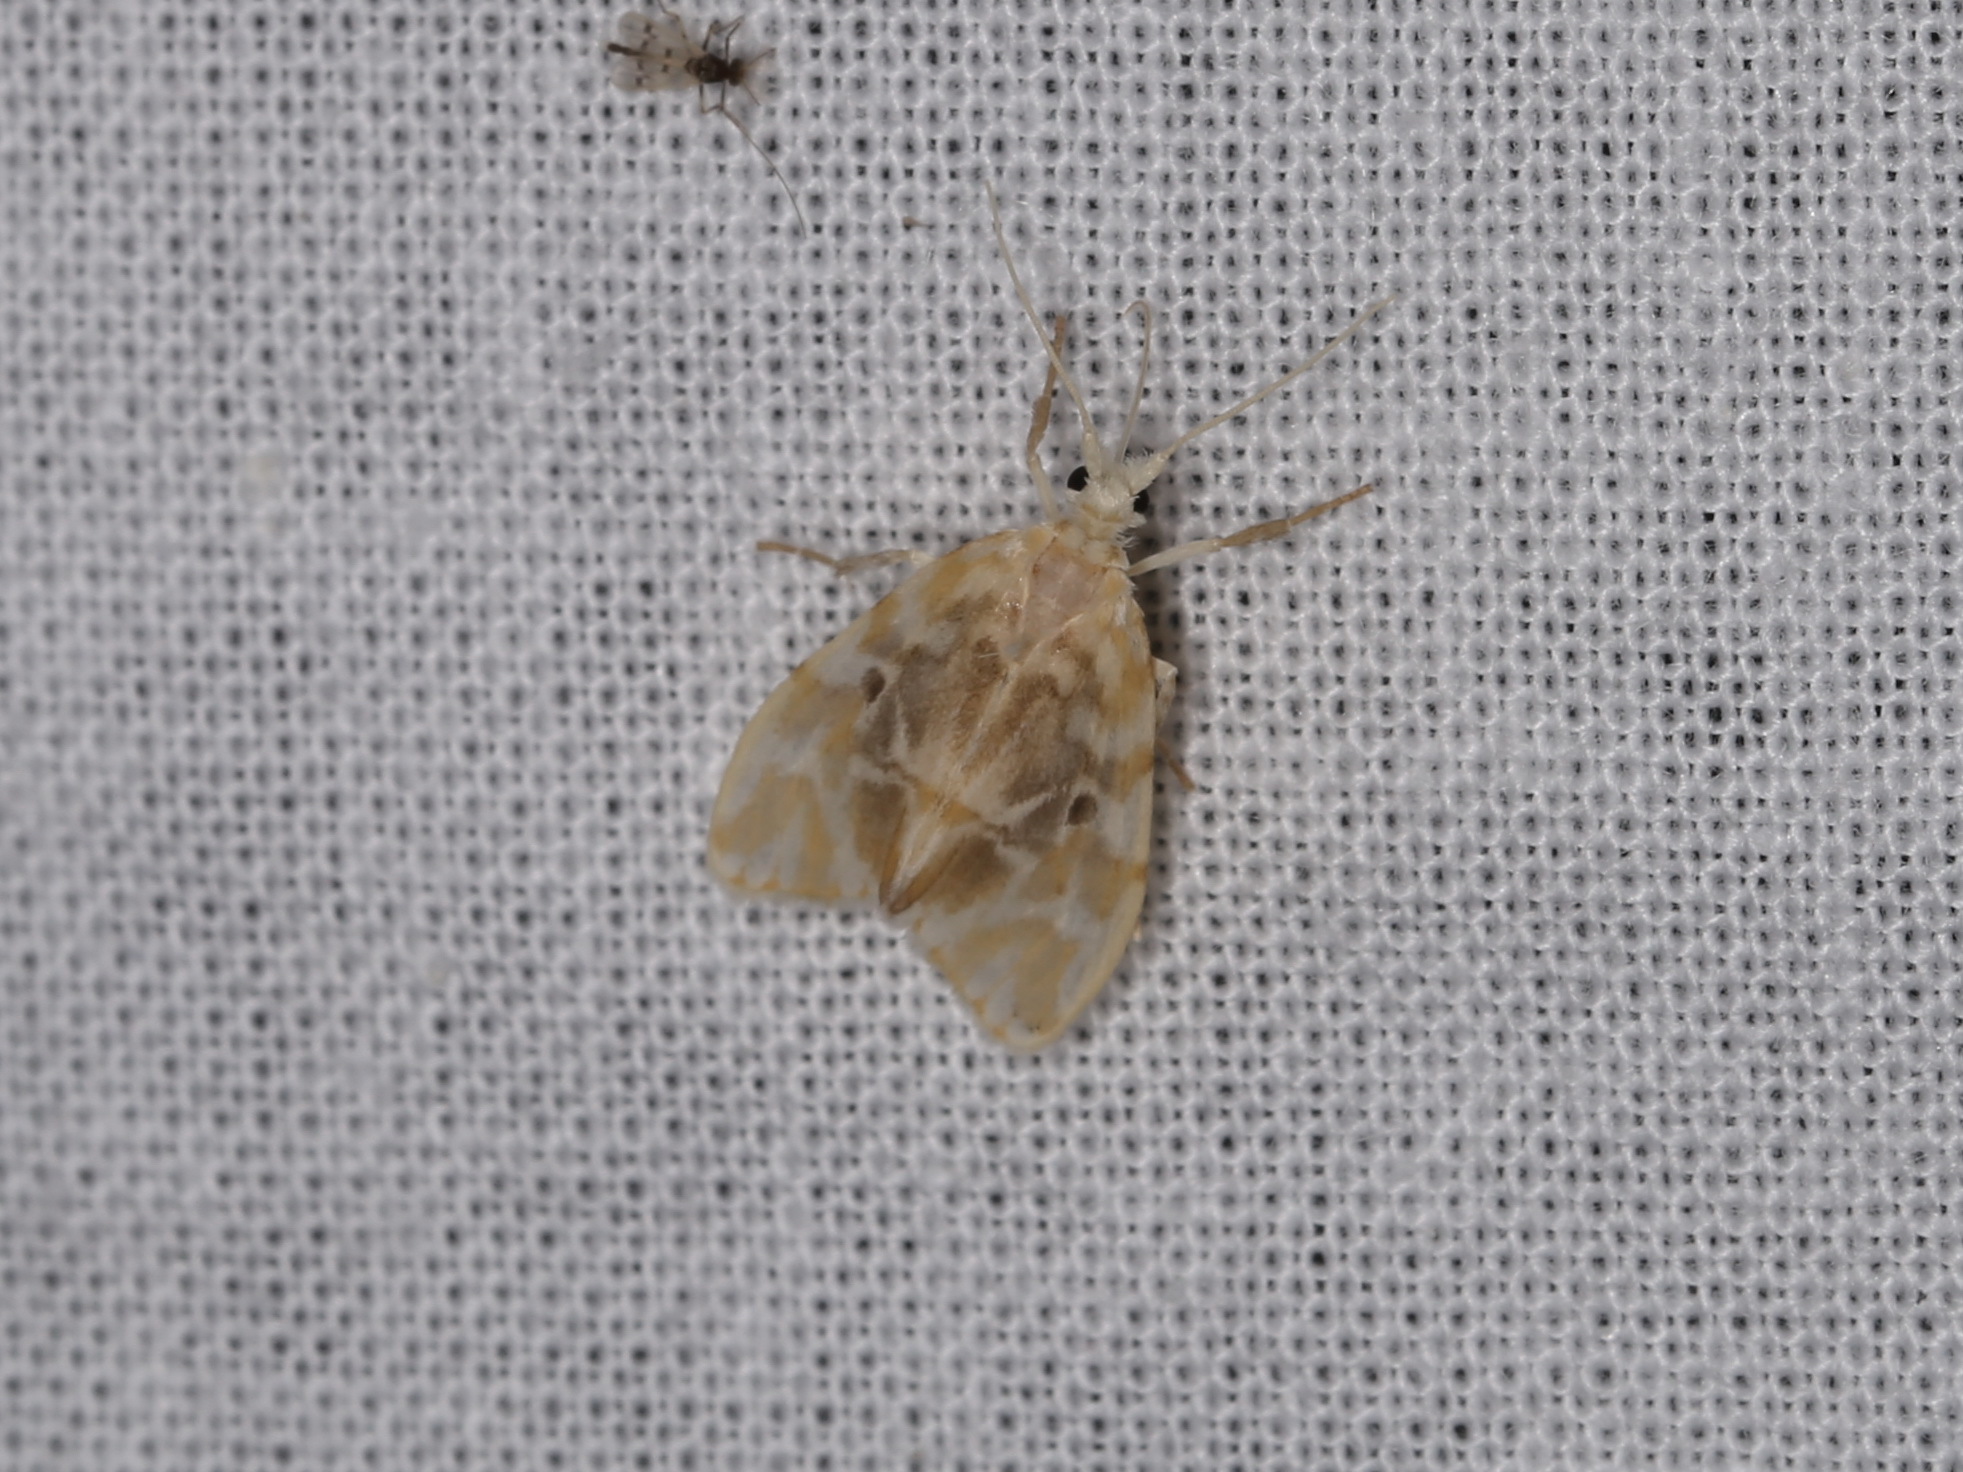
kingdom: Animalia
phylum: Arthropoda
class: Insecta
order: Lepidoptera
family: Erebidae
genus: Nudaria
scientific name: Nudaria phallustortens
